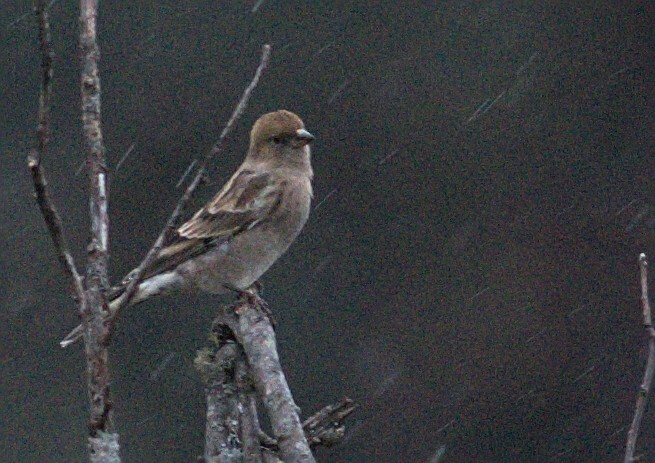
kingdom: Animalia
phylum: Chordata
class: Aves
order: Passeriformes
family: Fringillidae
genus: Leucosticte
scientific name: Leucosticte nemoricola
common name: Plain mountain finch
